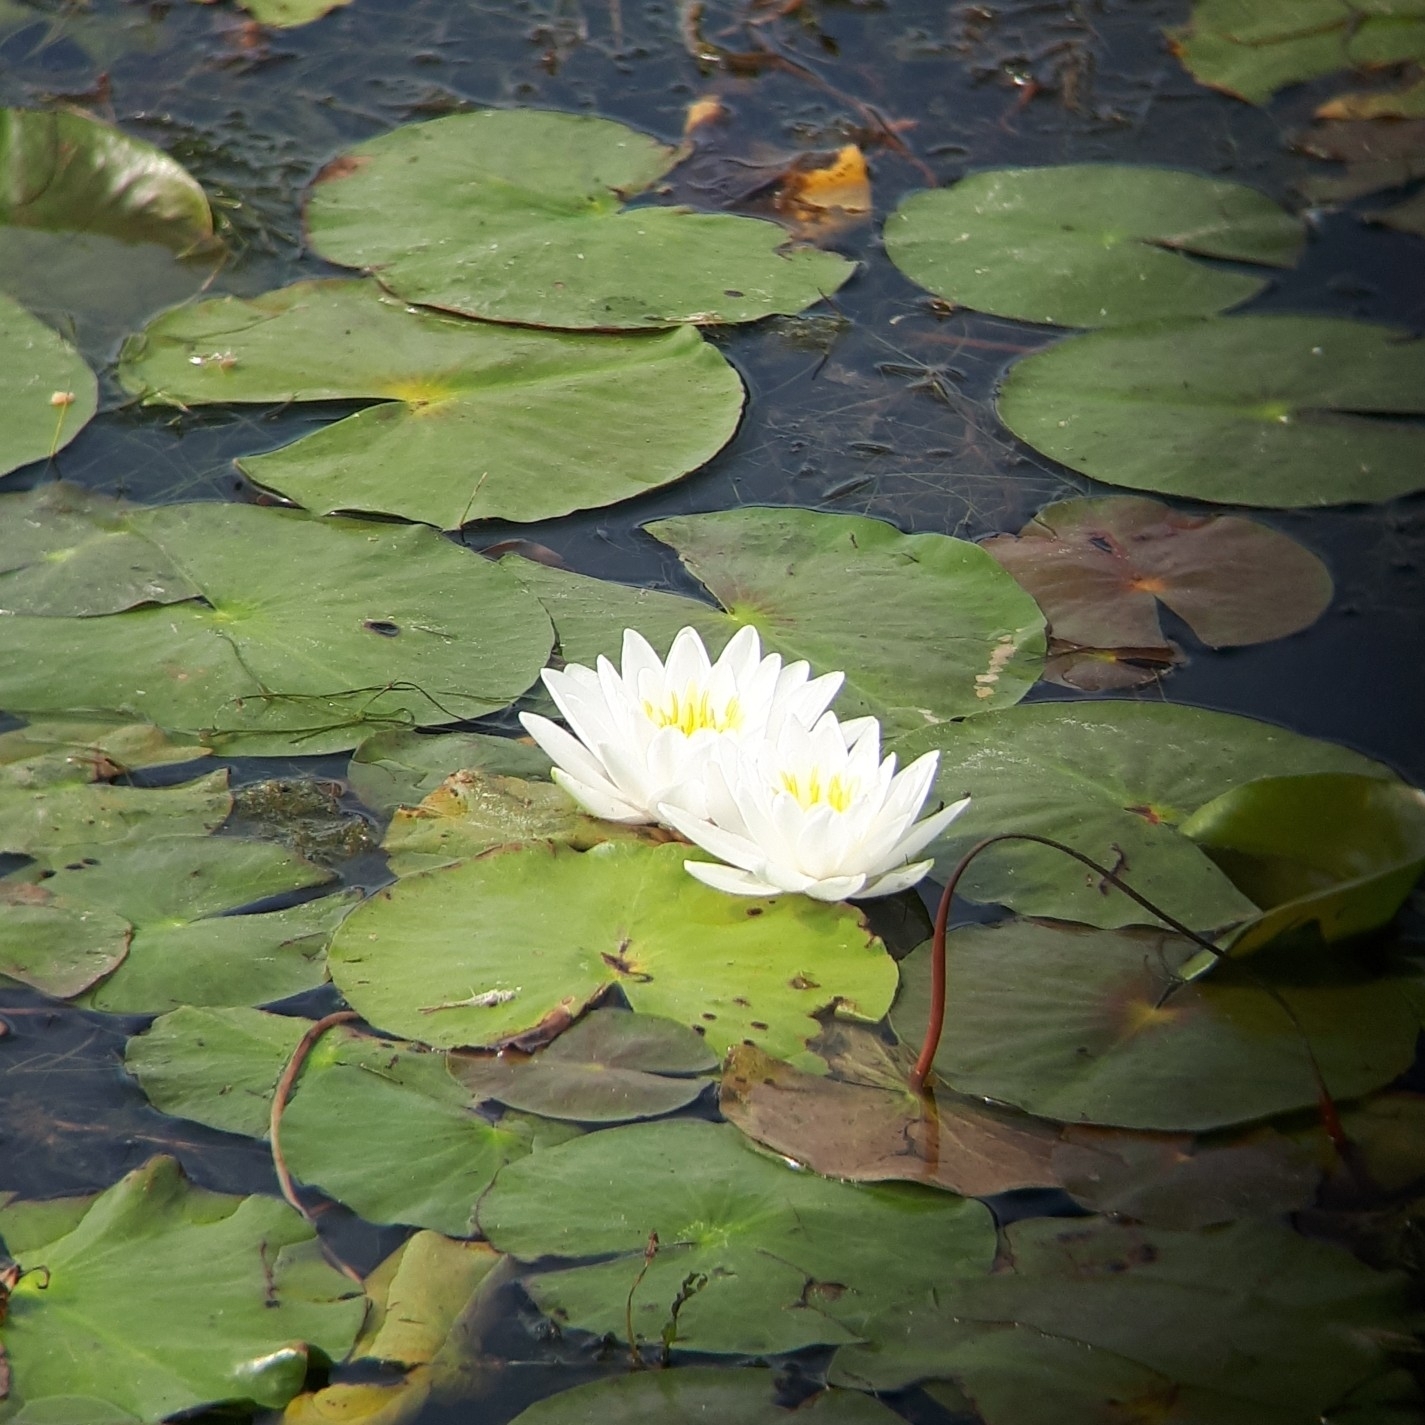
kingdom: Plantae
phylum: Tracheophyta
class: Magnoliopsida
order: Nymphaeales
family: Nymphaeaceae
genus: Nymphaea
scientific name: Nymphaea odorata
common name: Fragrant water-lily
